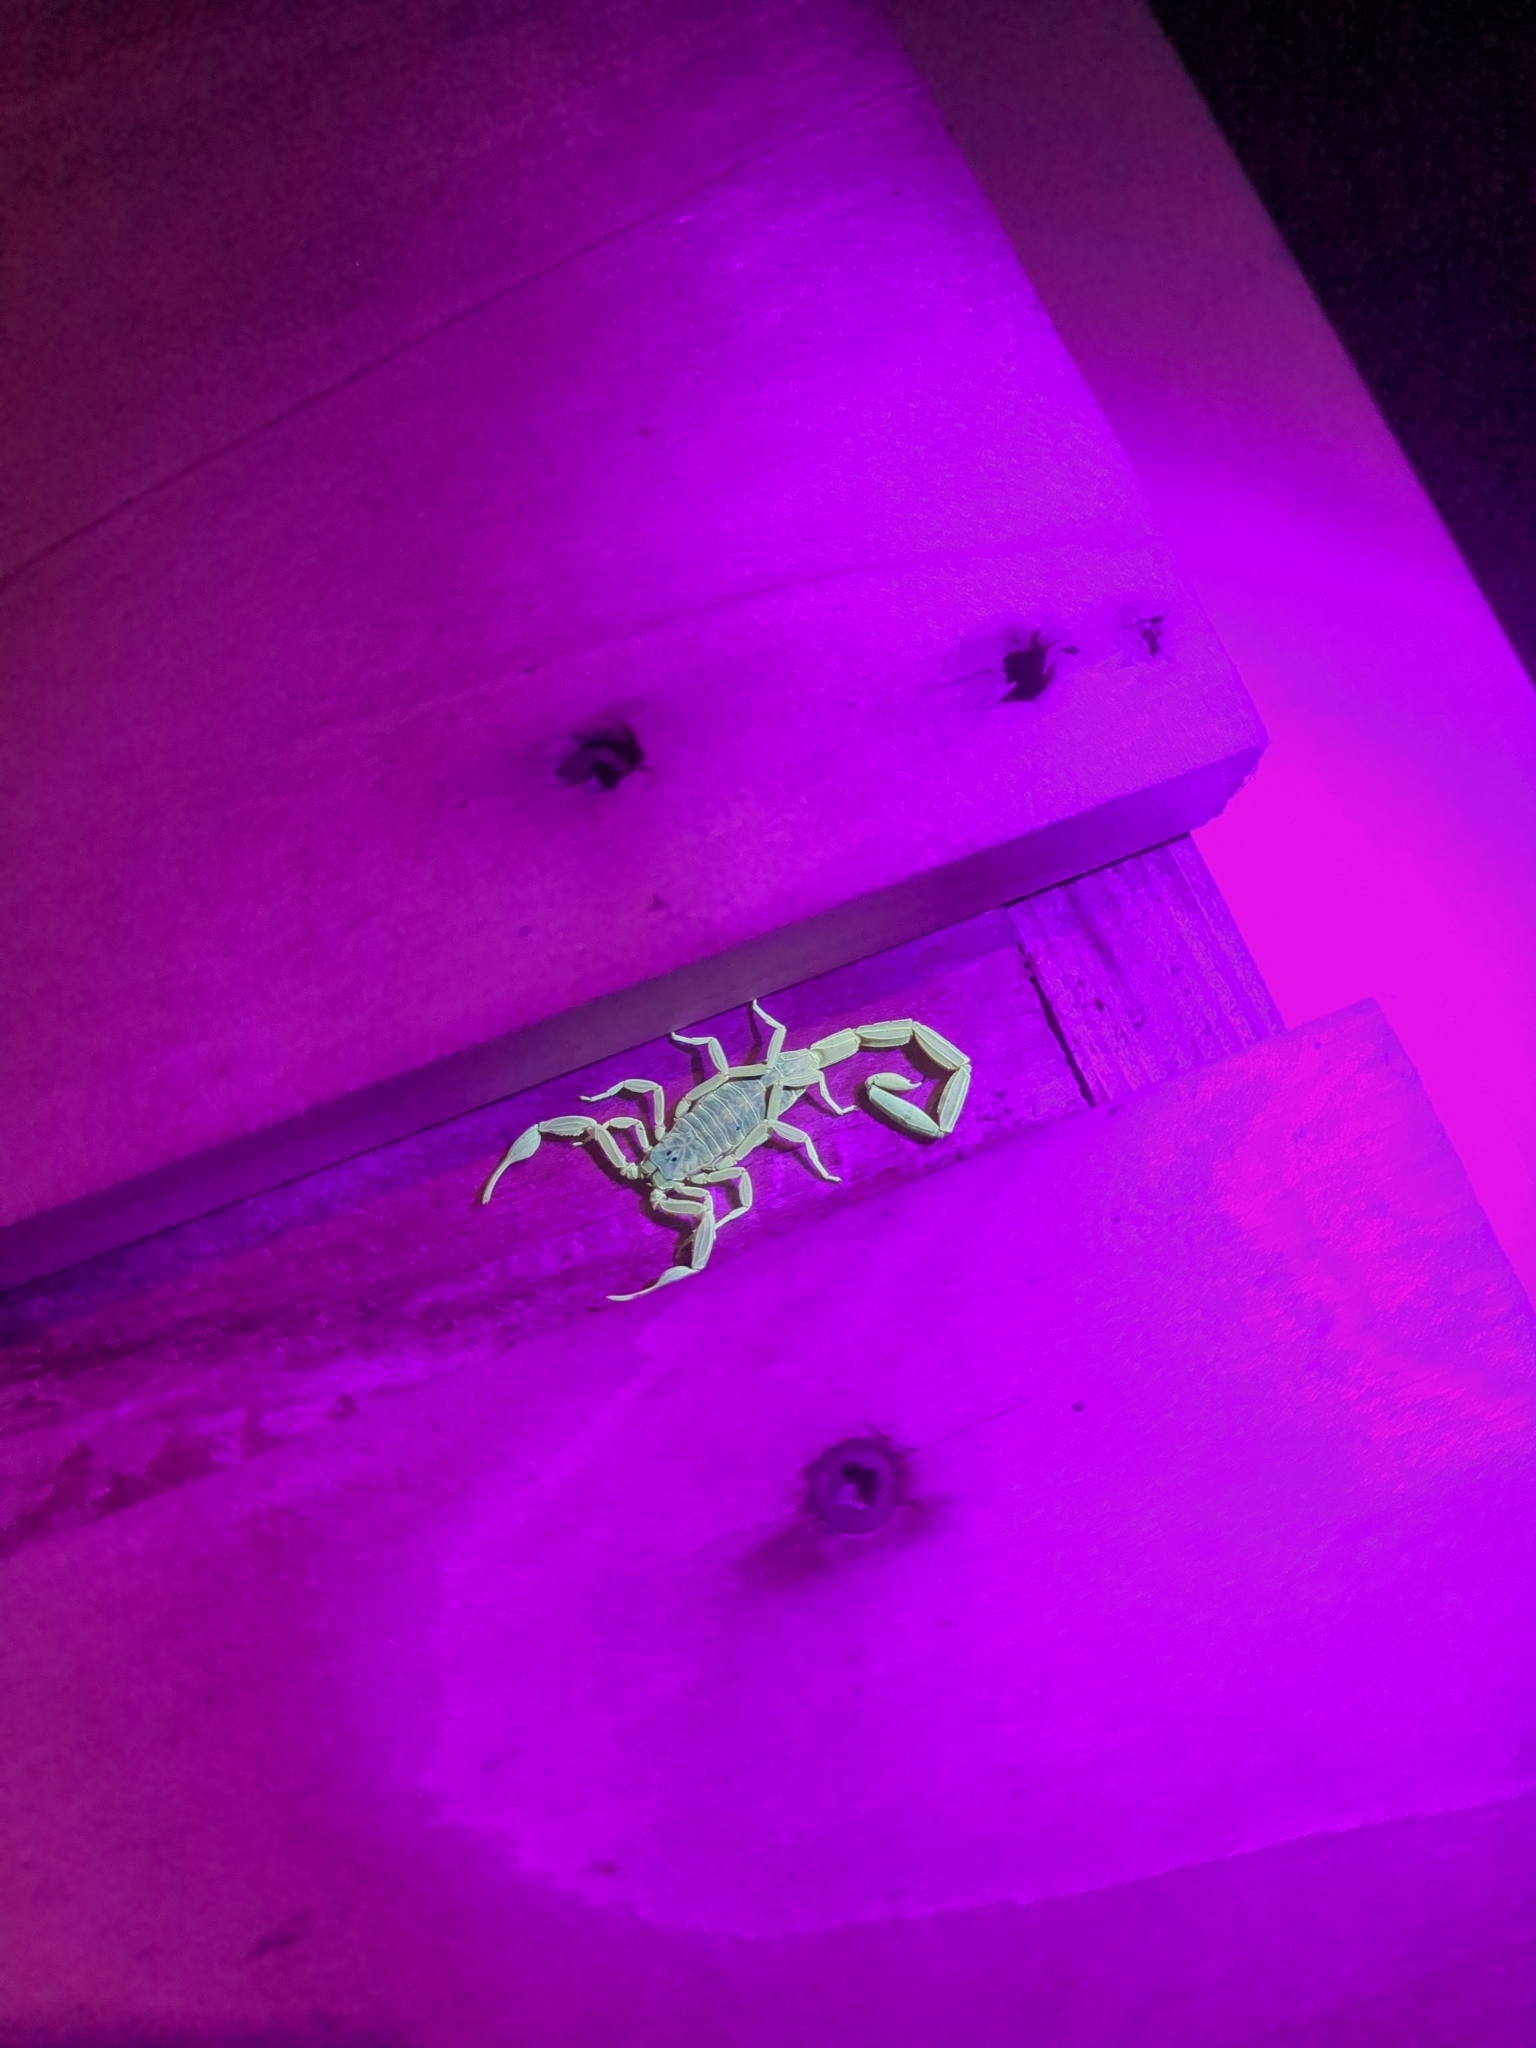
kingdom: Animalia
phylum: Arthropoda
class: Arachnida
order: Scorpiones
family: Buthidae
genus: Centruroides
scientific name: Centruroides vittatus
